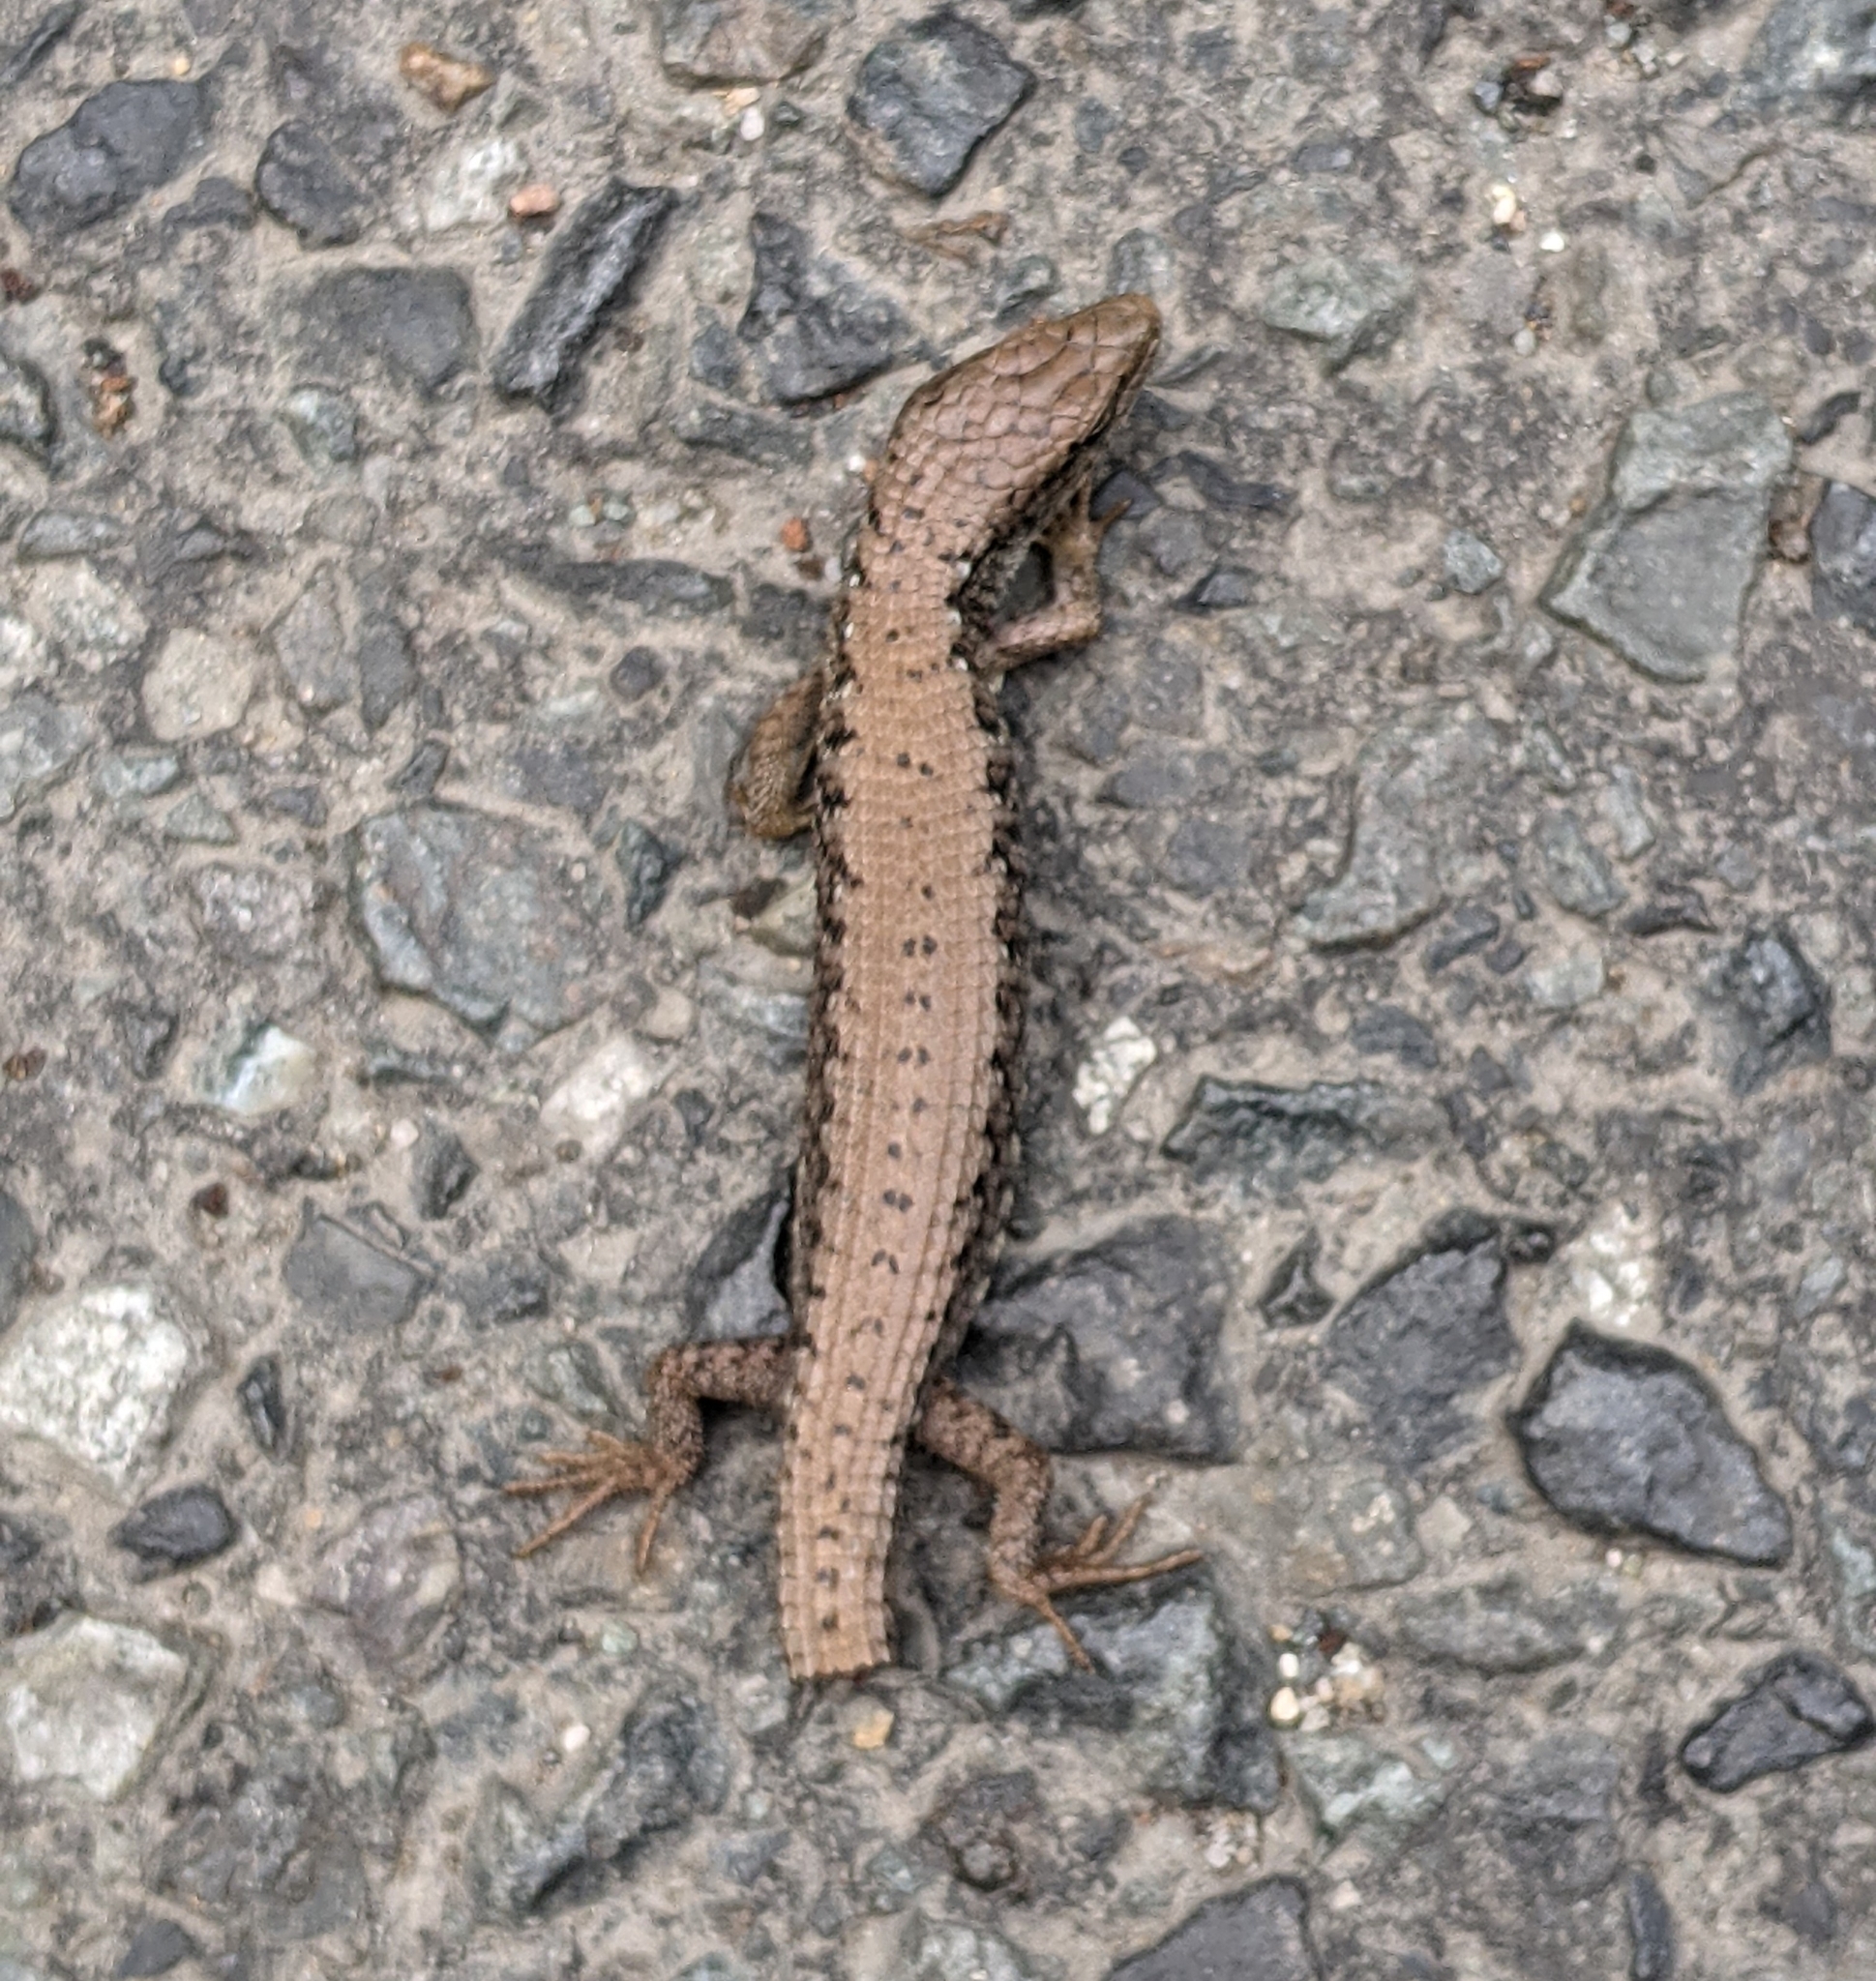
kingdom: Animalia
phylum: Chordata
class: Squamata
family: Anguidae
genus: Elgaria
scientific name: Elgaria coerulea
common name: Northern alligator lizard
